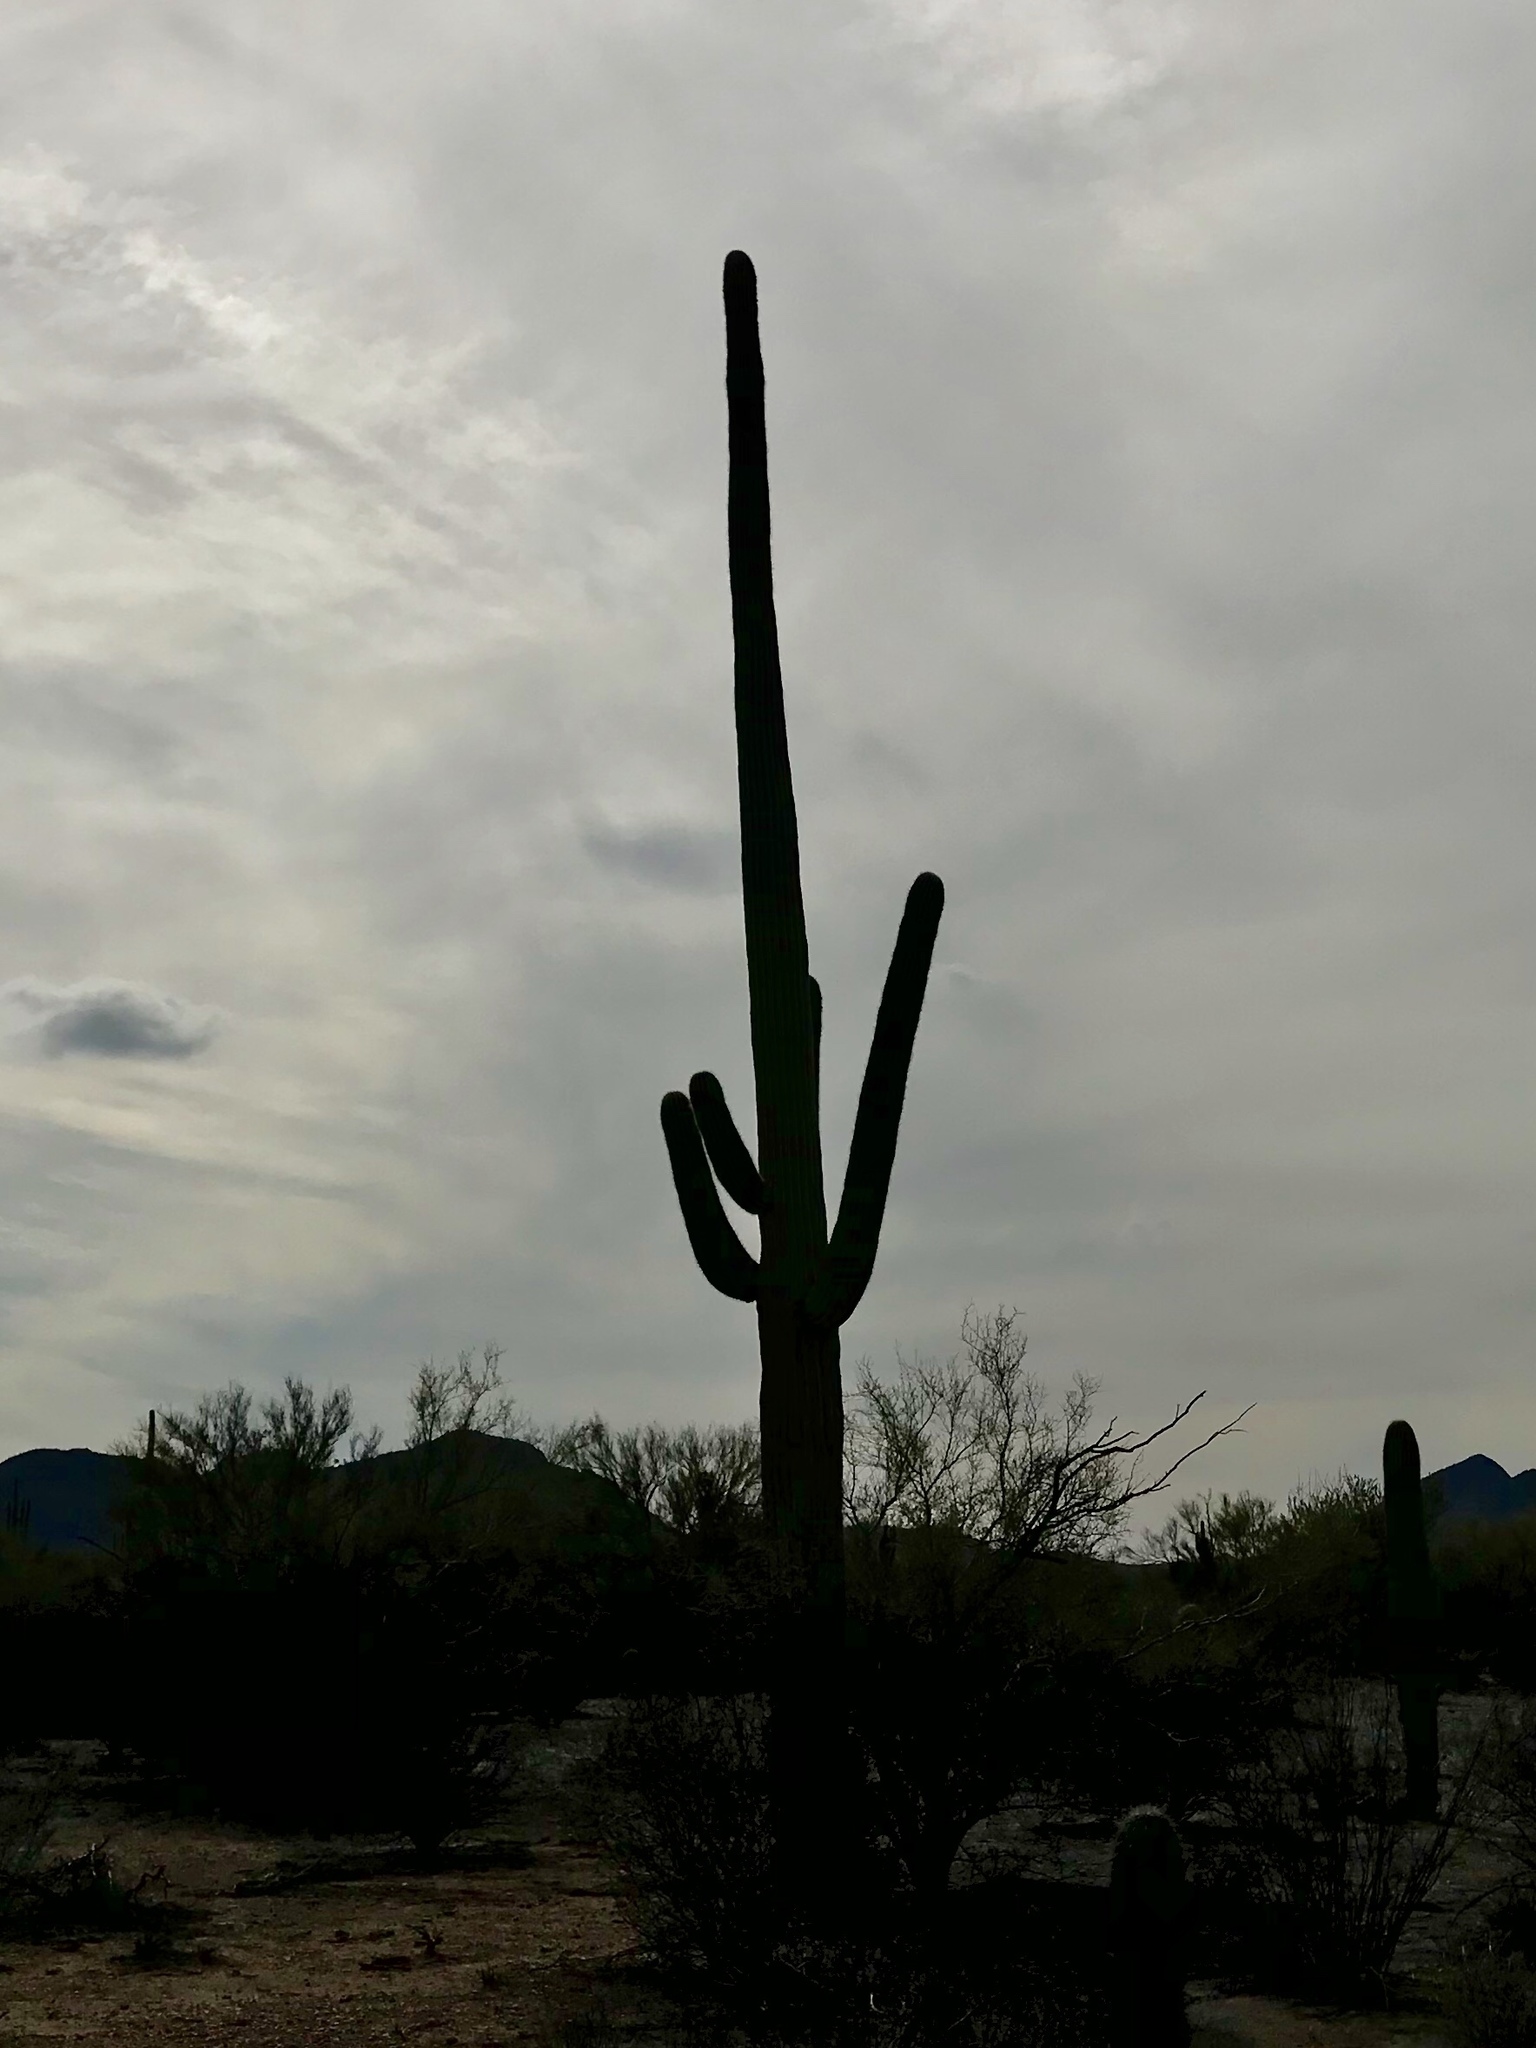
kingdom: Plantae
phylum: Tracheophyta
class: Magnoliopsida
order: Caryophyllales
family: Cactaceae
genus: Carnegiea
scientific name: Carnegiea gigantea
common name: Saguaro
